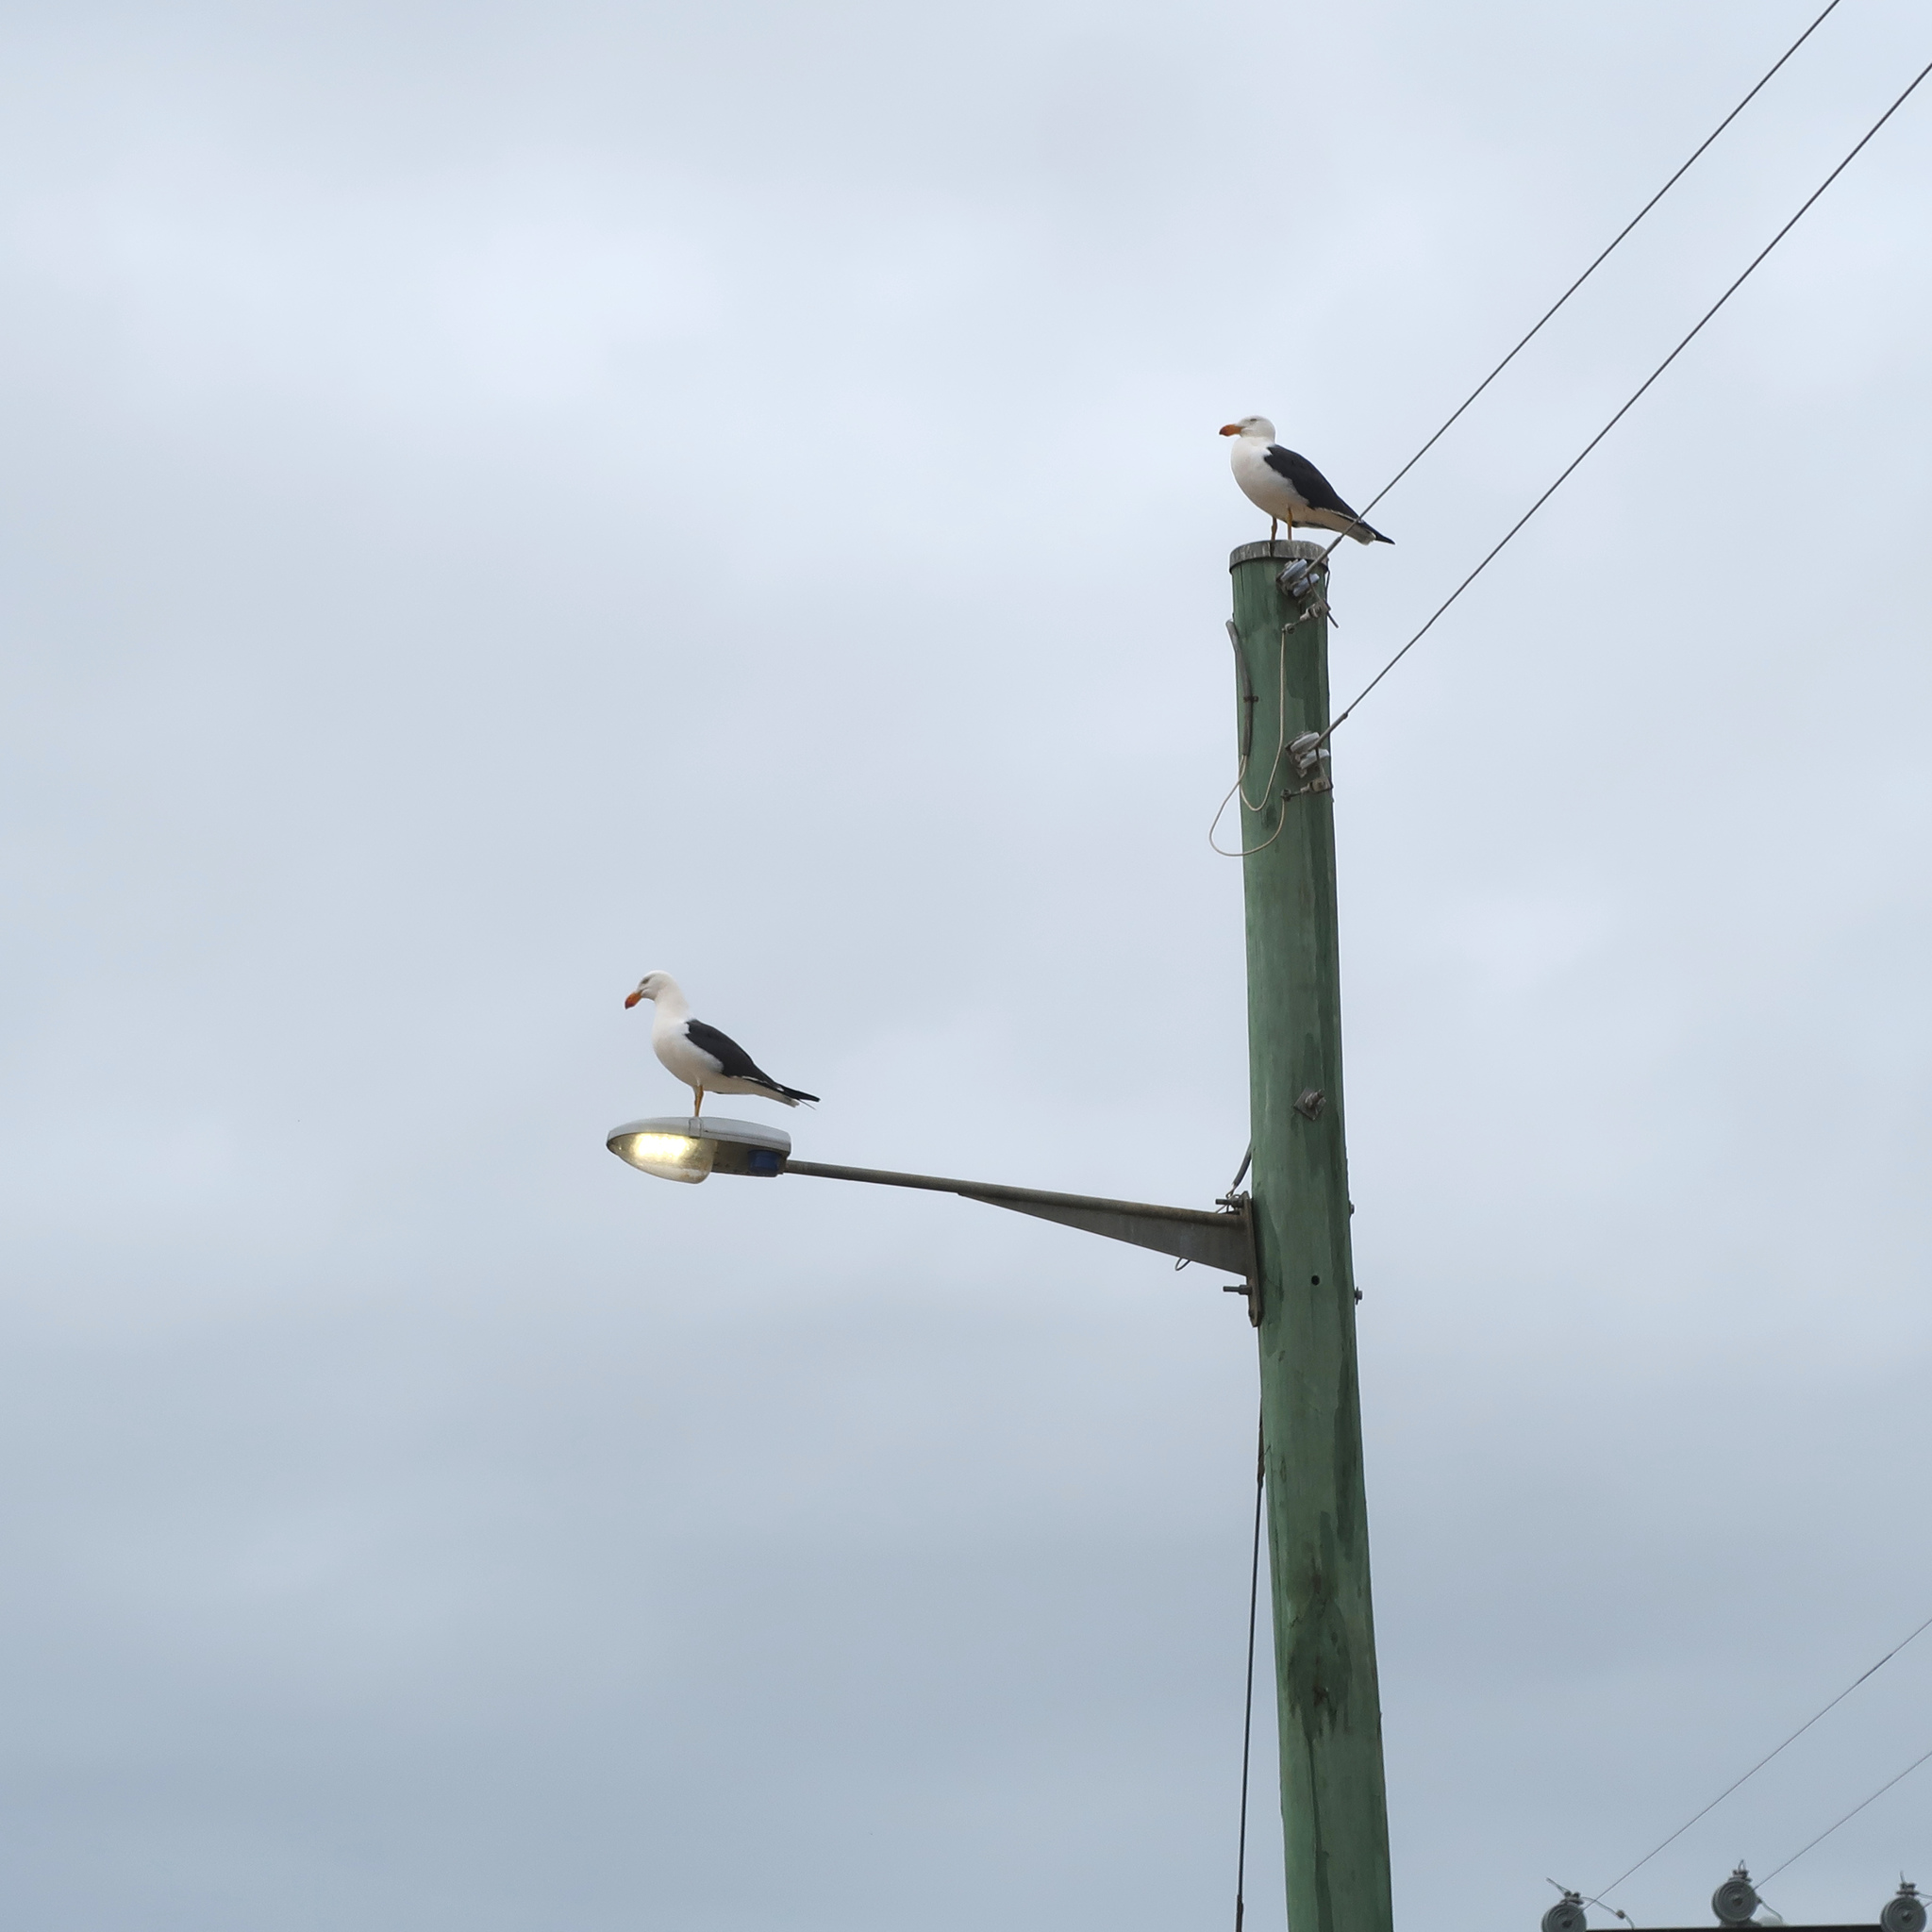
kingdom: Animalia
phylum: Chordata
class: Aves
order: Charadriiformes
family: Laridae
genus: Larus
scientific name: Larus pacificus
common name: Pacific gull
